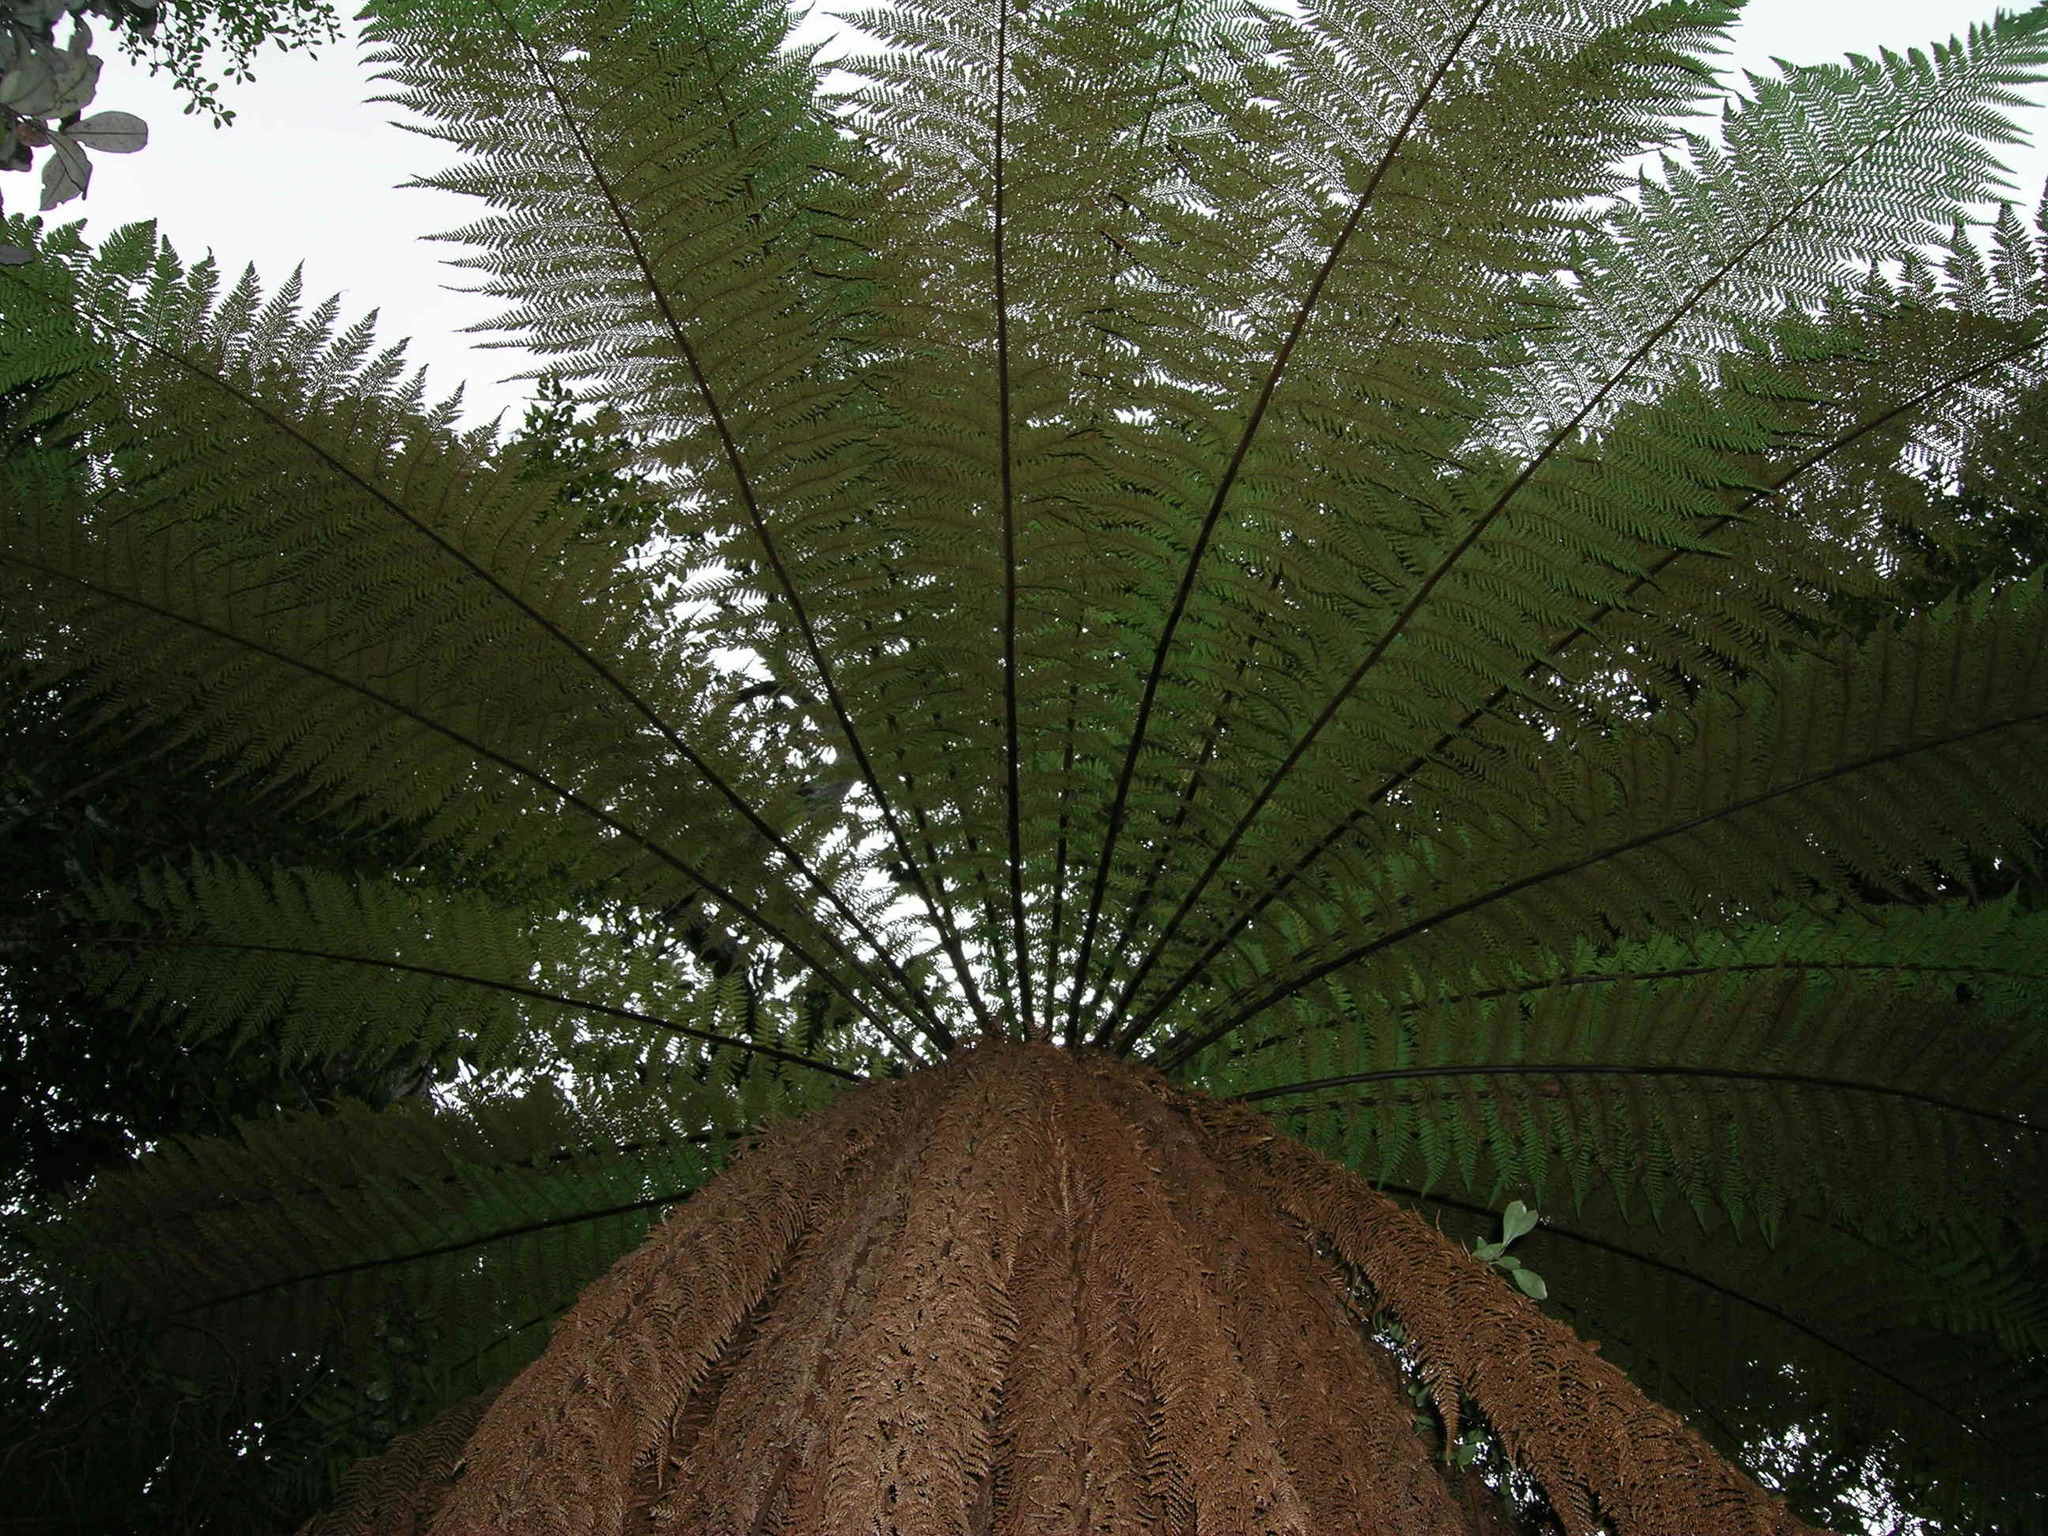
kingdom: Plantae
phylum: Tracheophyta
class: Polypodiopsida
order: Cyatheales
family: Dicksoniaceae
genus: Dicksonia
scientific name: Dicksonia fibrosa
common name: Golden tree fern
